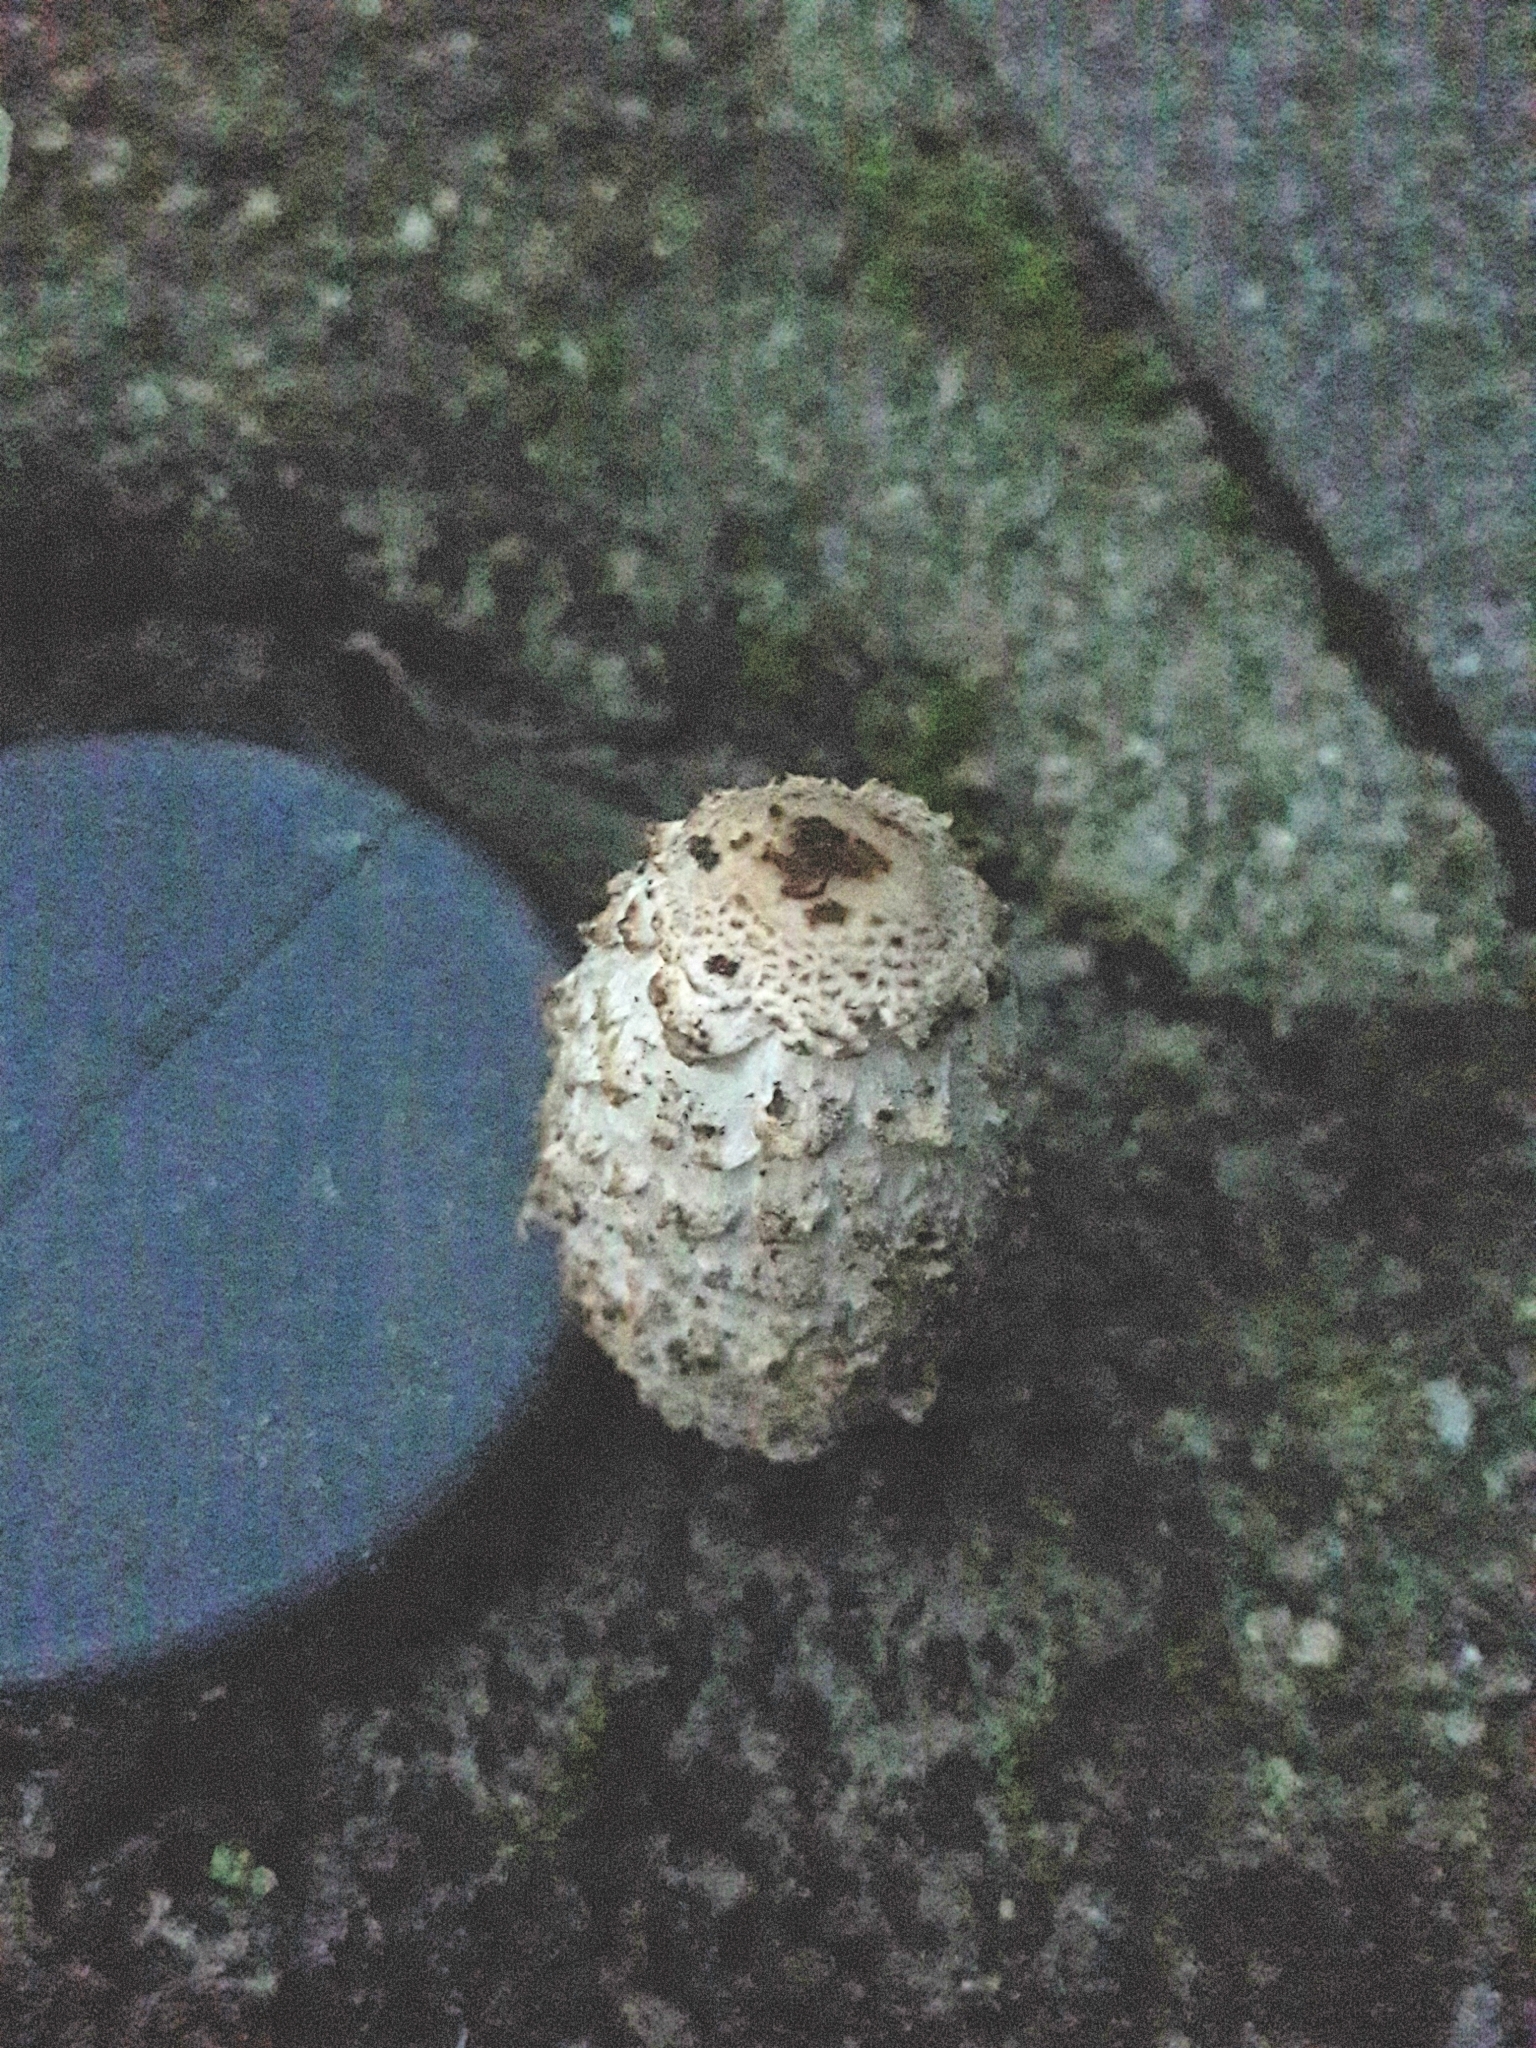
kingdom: Fungi
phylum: Basidiomycota
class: Agaricomycetes
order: Agaricales
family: Agaricaceae
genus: Coprinus
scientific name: Coprinus comatus
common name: Lawyer's wig
